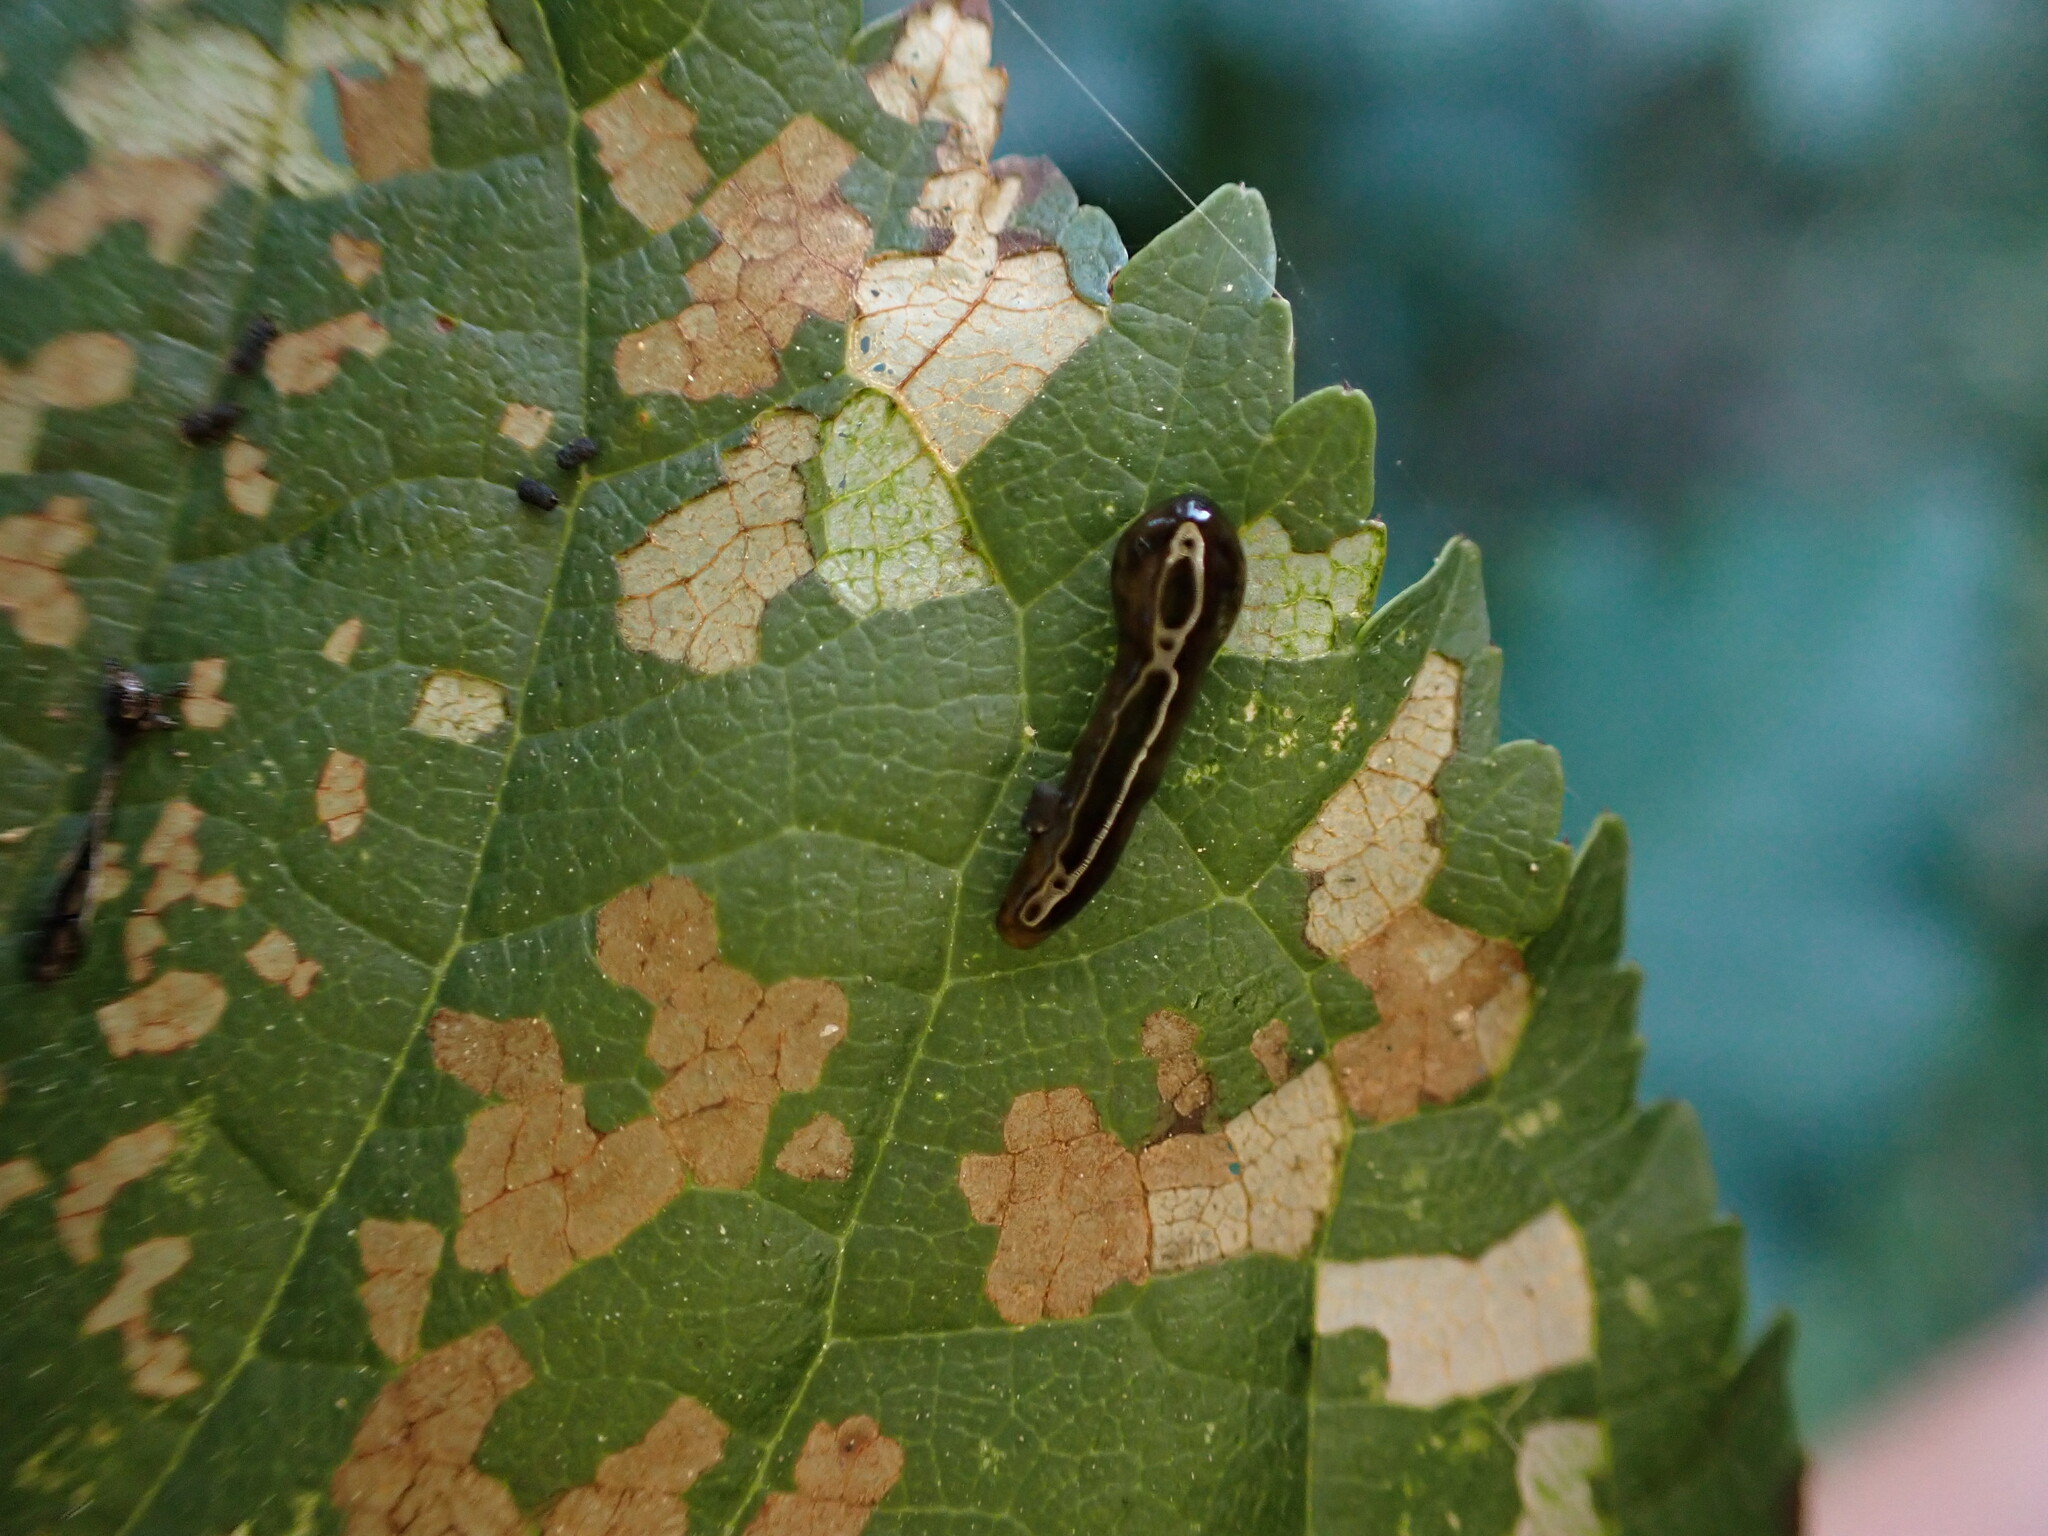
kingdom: Animalia
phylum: Arthropoda
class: Insecta
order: Hymenoptera
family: Tenthredinidae
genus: Caliroa
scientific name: Caliroa cerasi
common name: Pear sawfly
